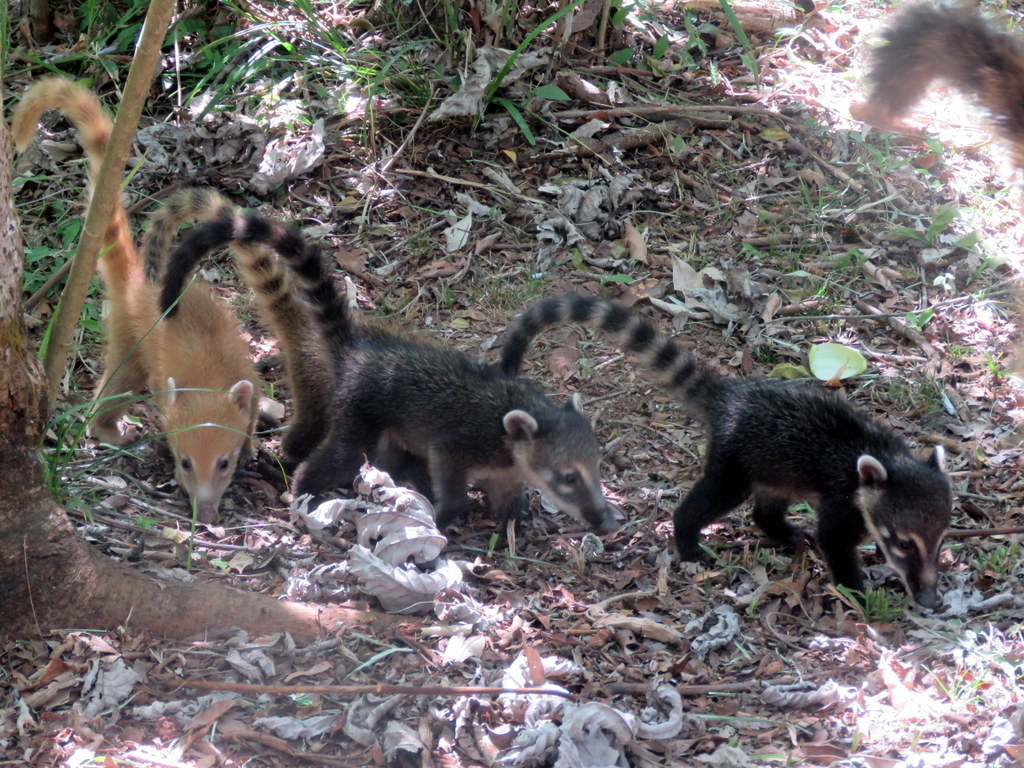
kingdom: Animalia
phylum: Chordata
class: Mammalia
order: Carnivora
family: Procyonidae
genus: Nasua
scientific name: Nasua nasua
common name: South american coati
